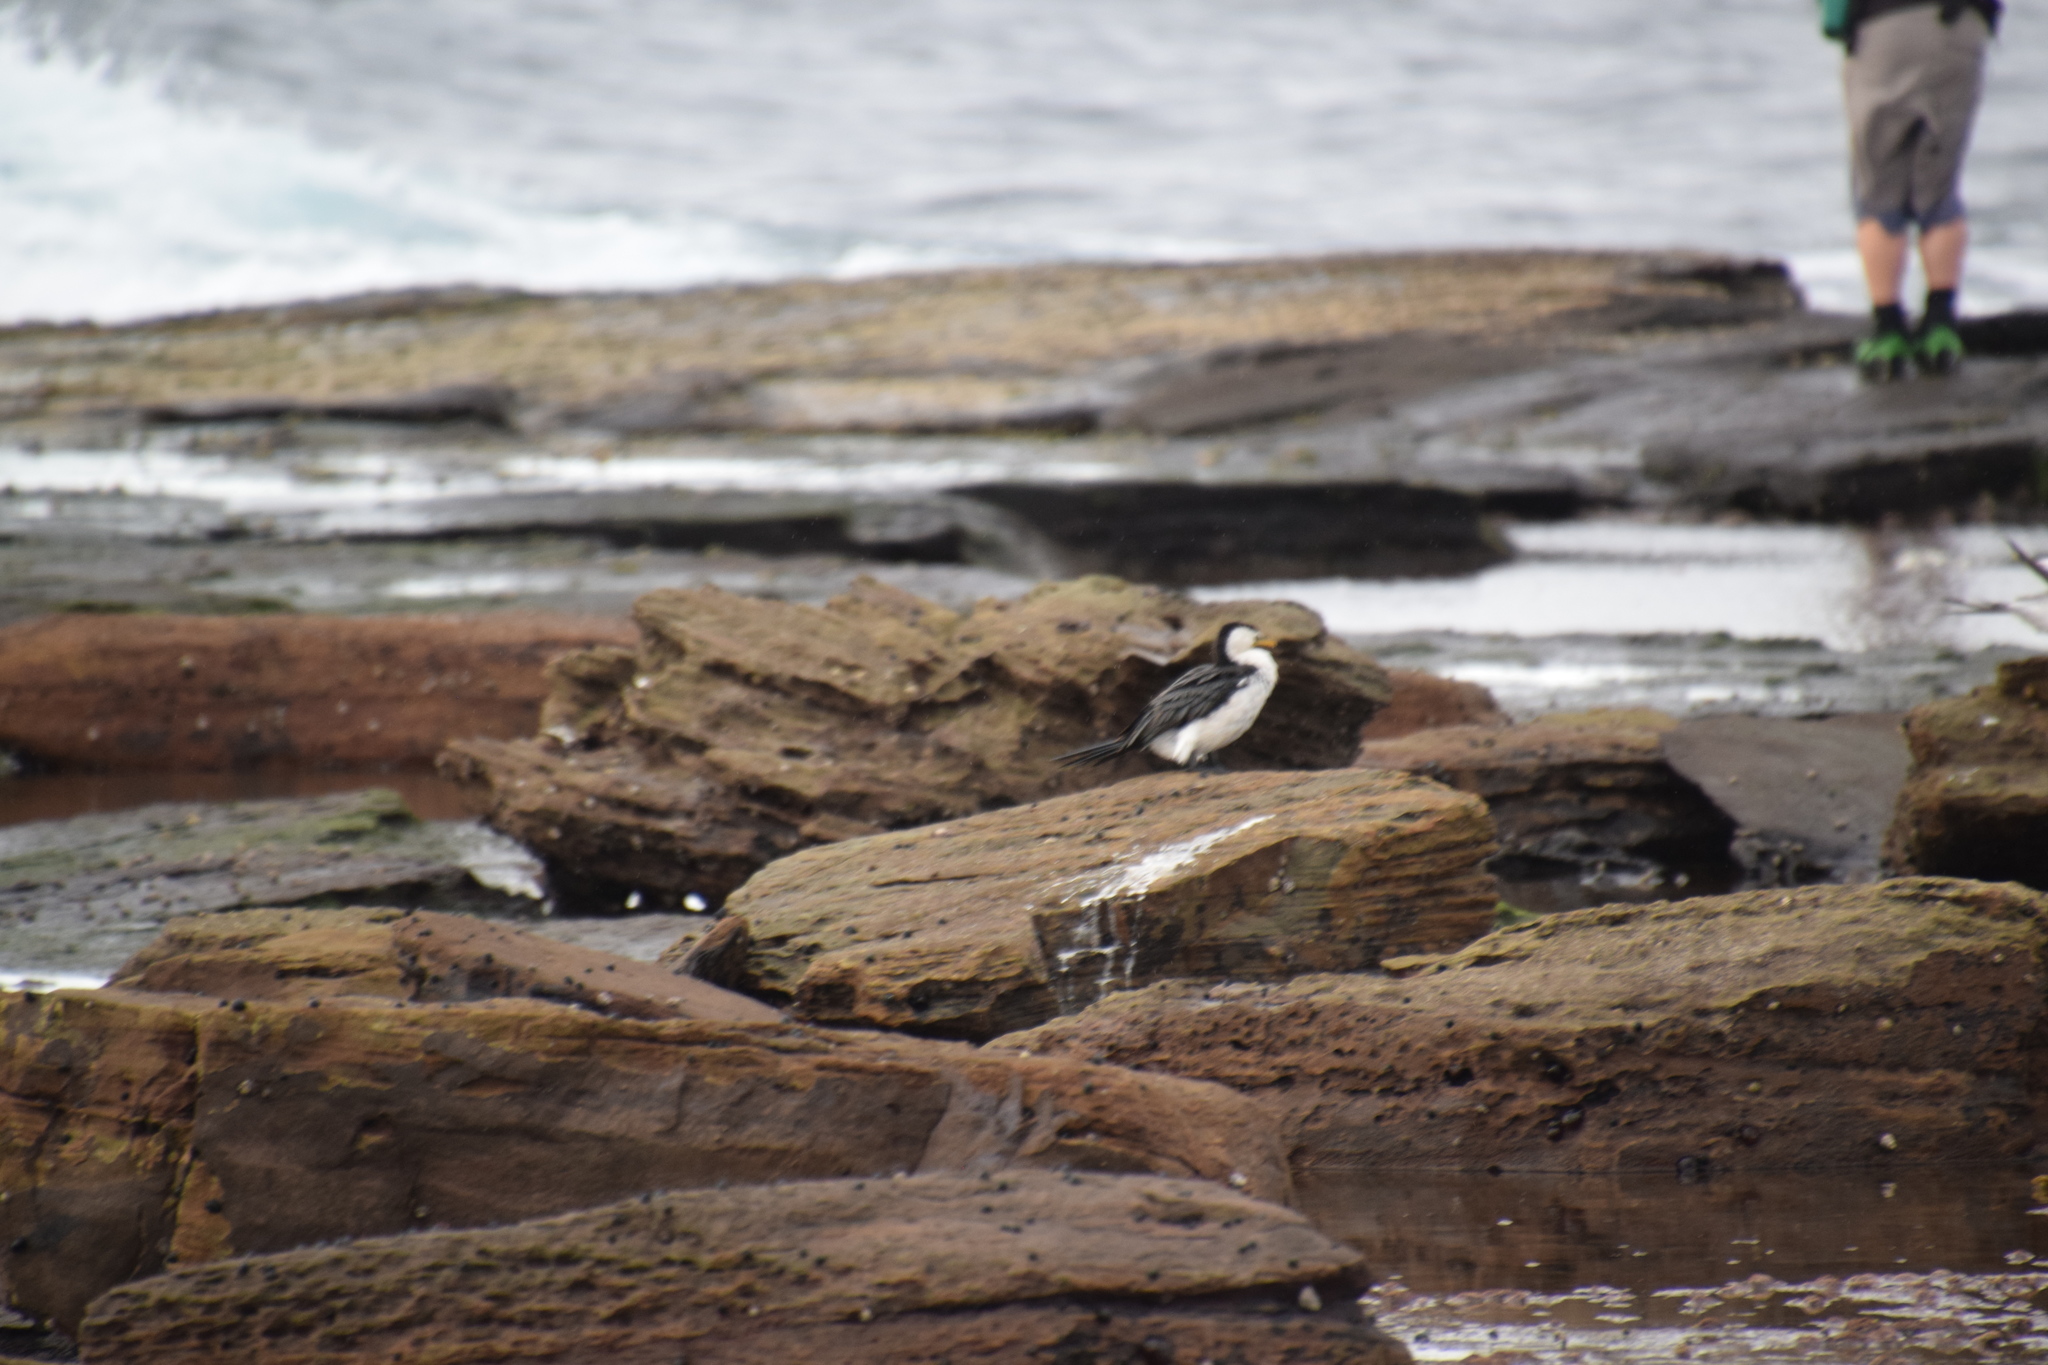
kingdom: Animalia
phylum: Chordata
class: Aves
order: Suliformes
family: Phalacrocoracidae
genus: Microcarbo
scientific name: Microcarbo melanoleucos
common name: Little pied cormorant
